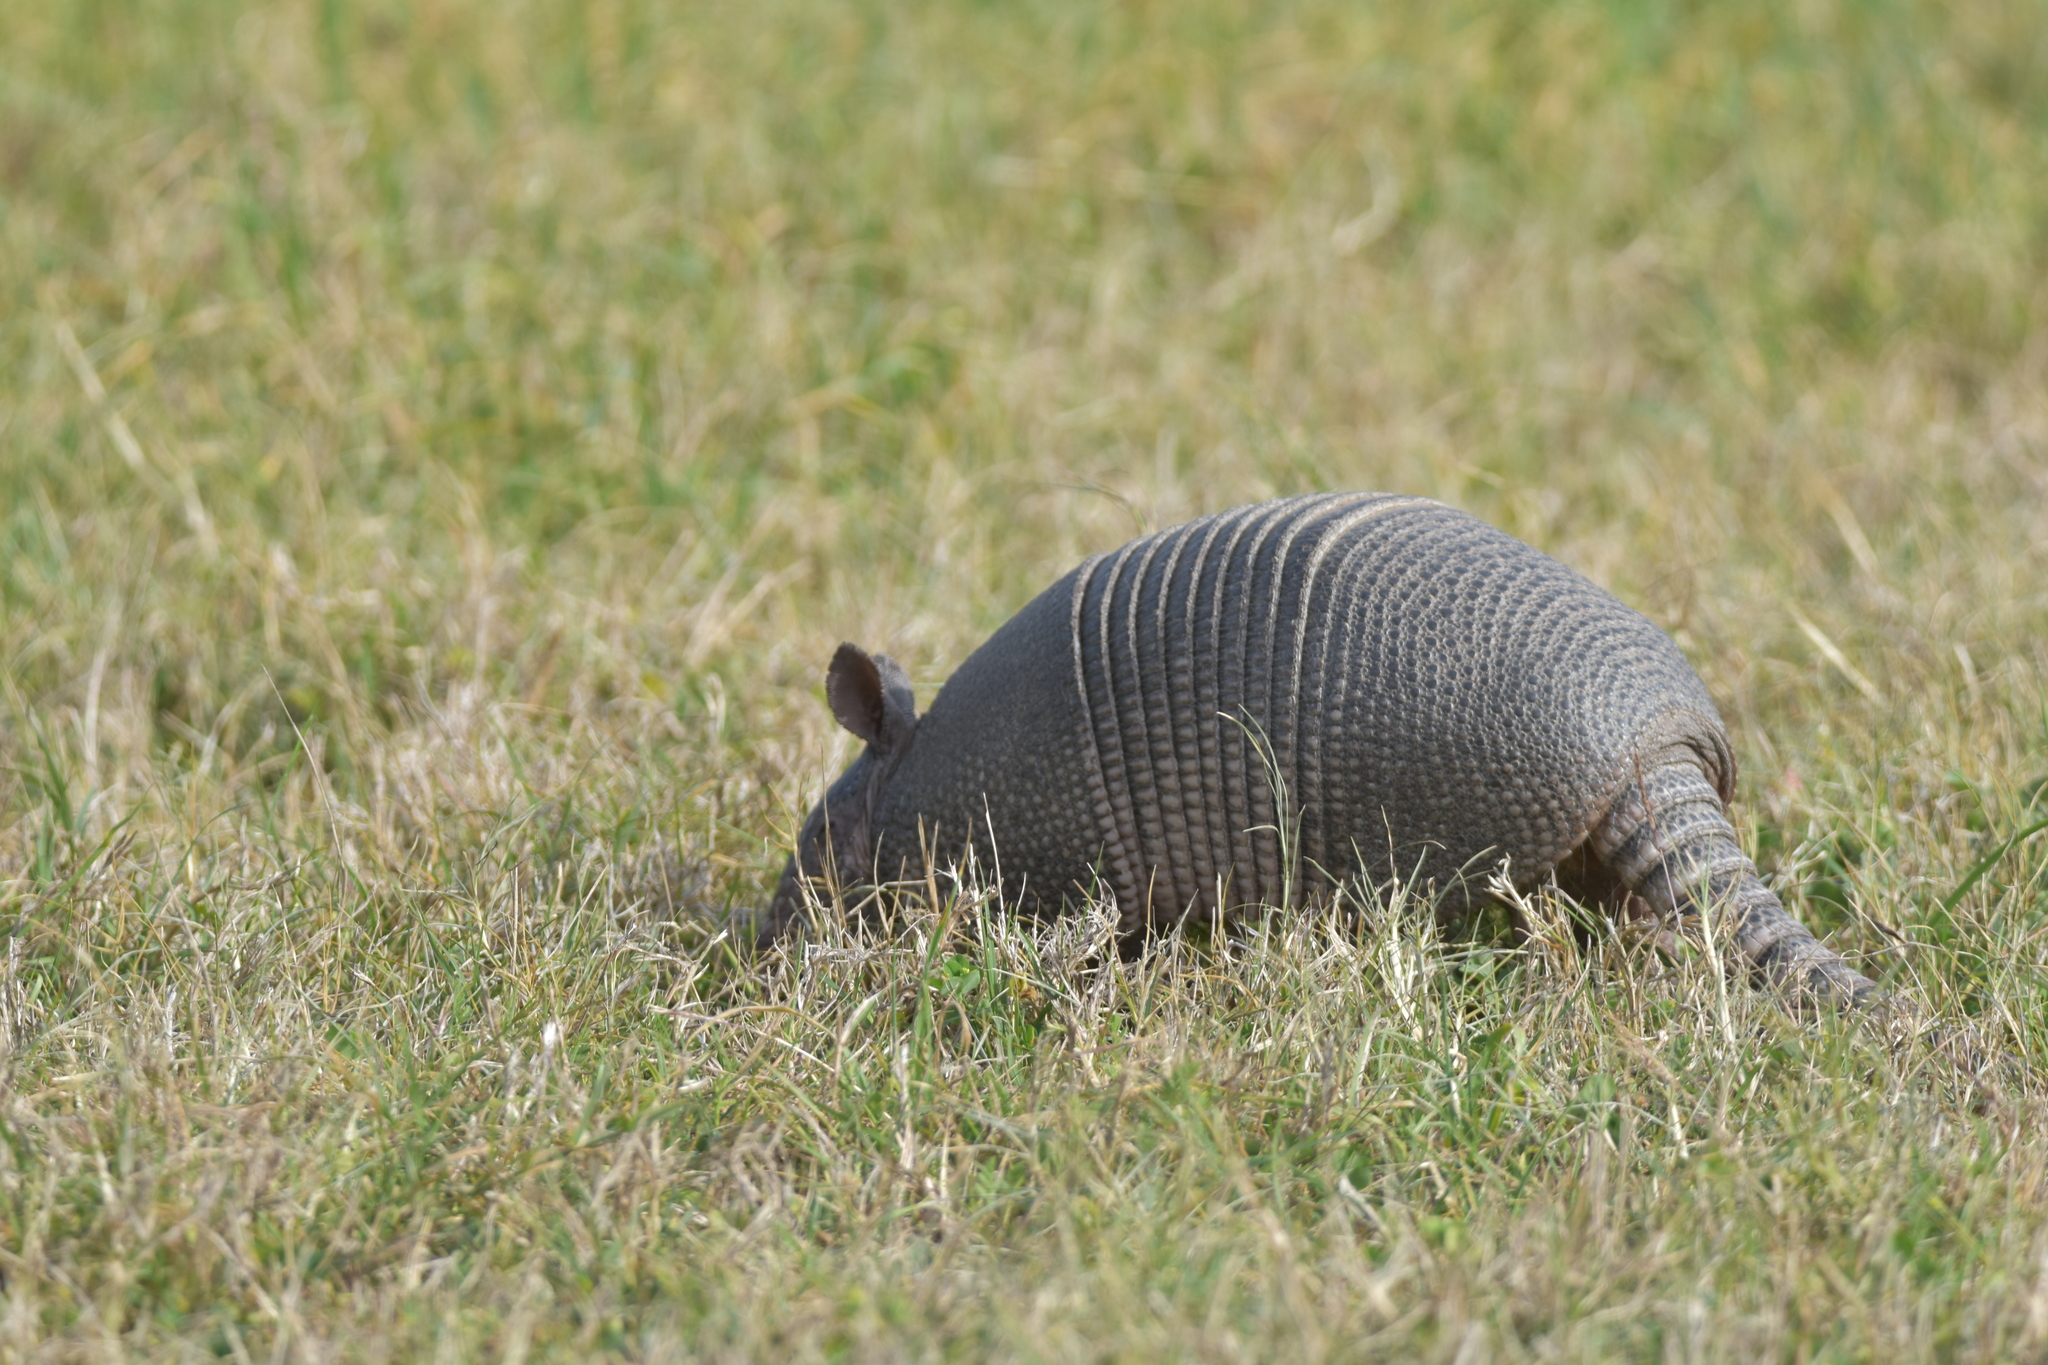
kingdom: Animalia
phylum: Chordata
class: Mammalia
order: Cingulata
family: Dasypodidae
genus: Dasypus
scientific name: Dasypus novemcinctus
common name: Nine-banded armadillo
